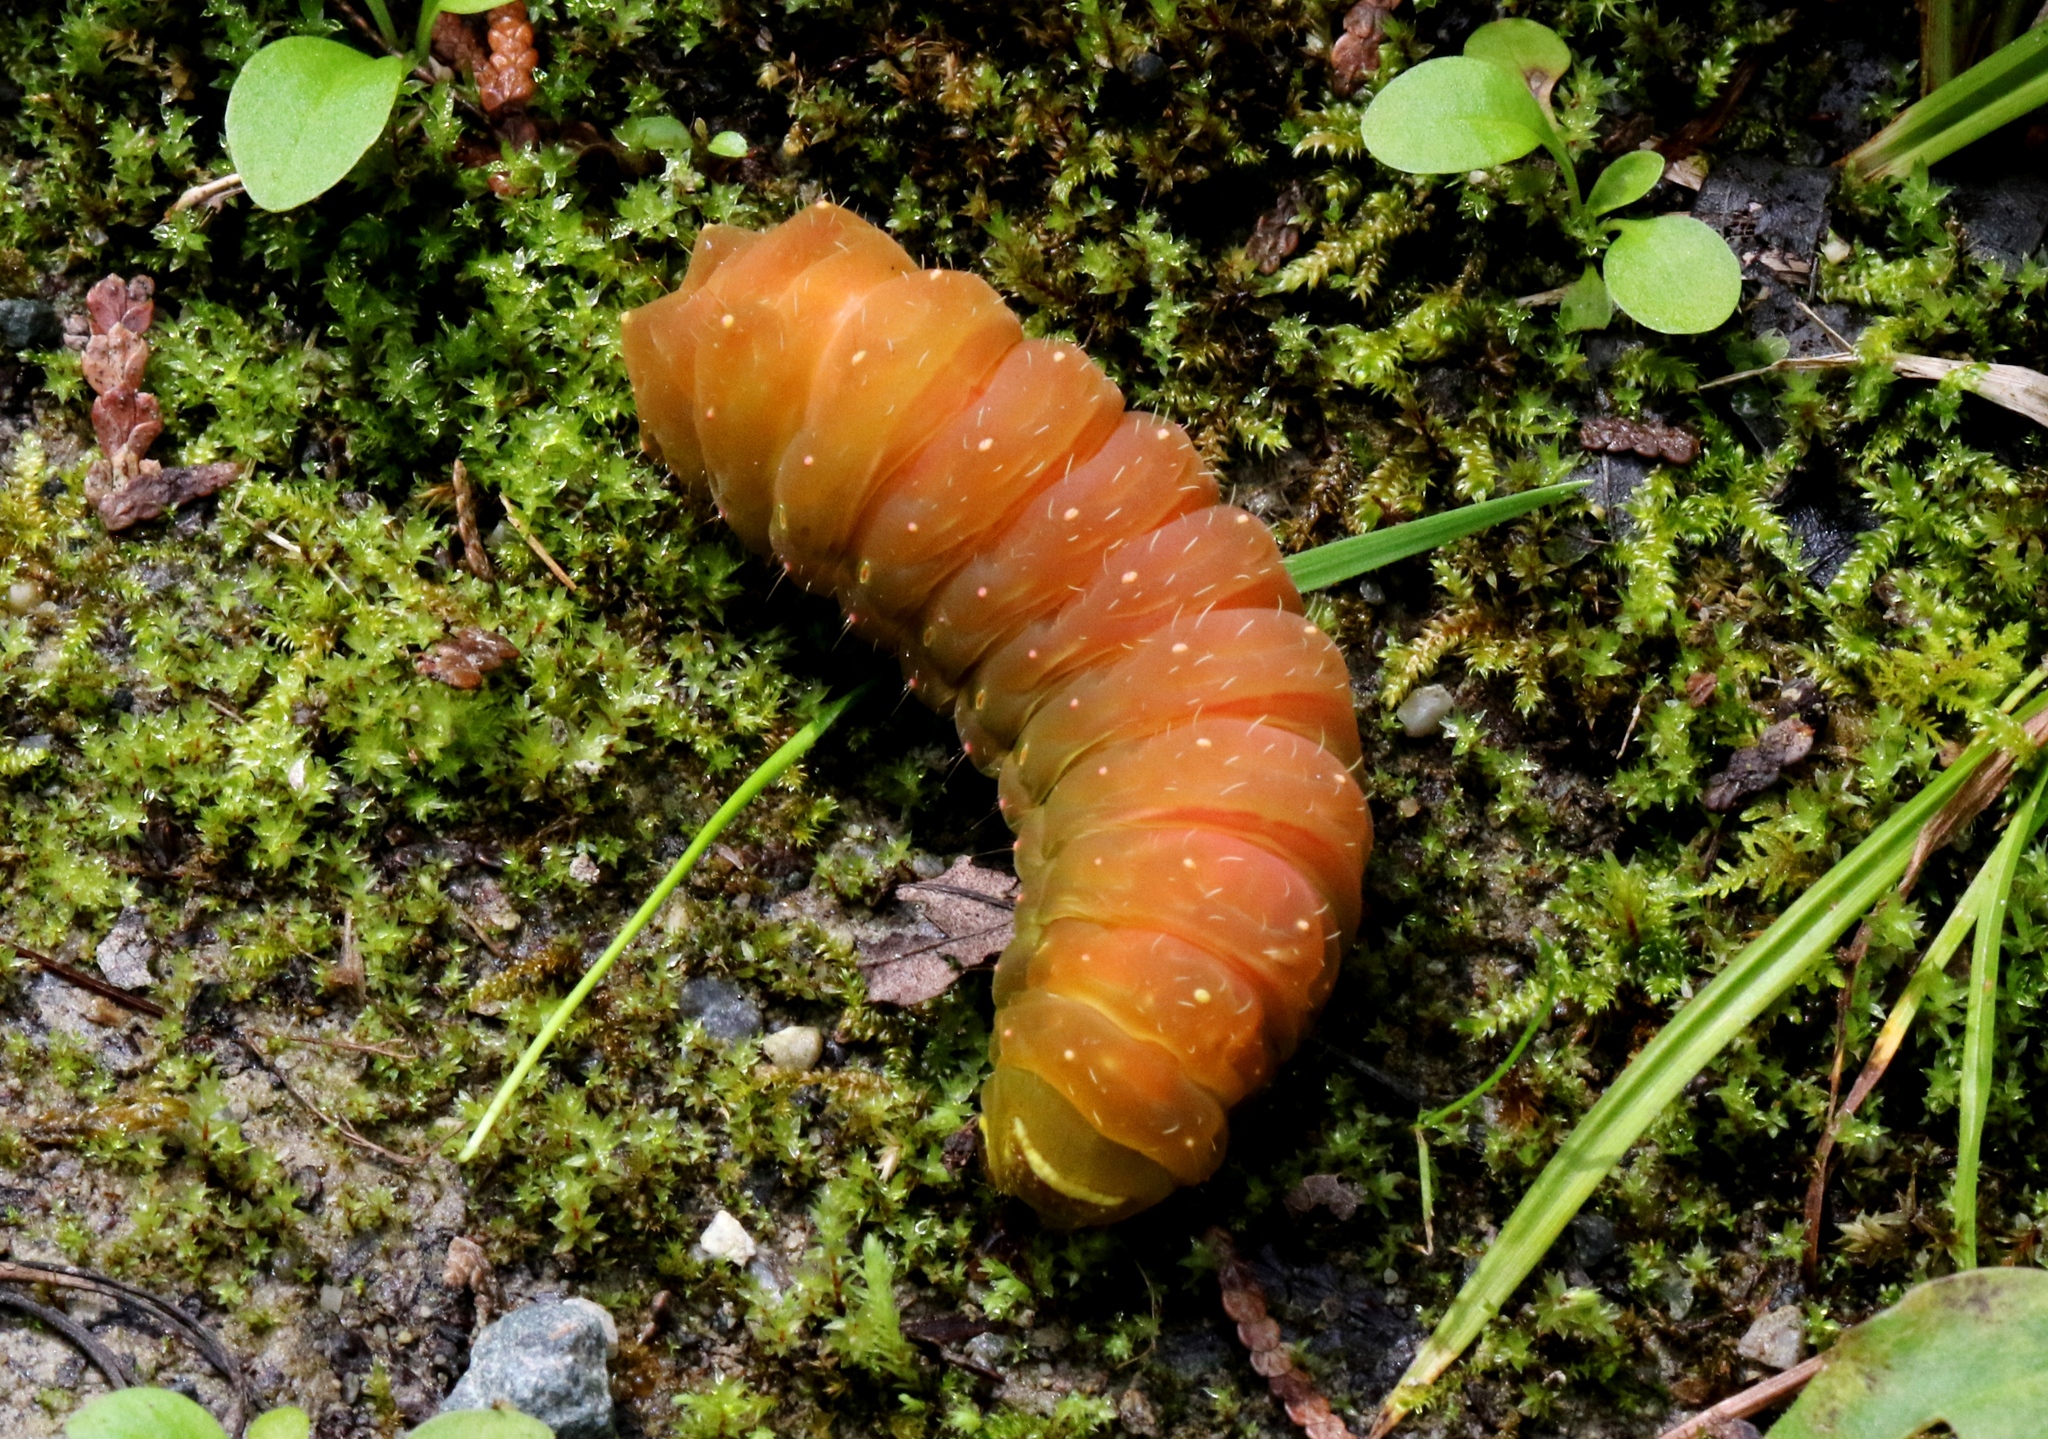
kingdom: Animalia
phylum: Arthropoda
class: Insecta
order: Lepidoptera
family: Saturniidae
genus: Actias
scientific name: Actias luna
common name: Luna moth
